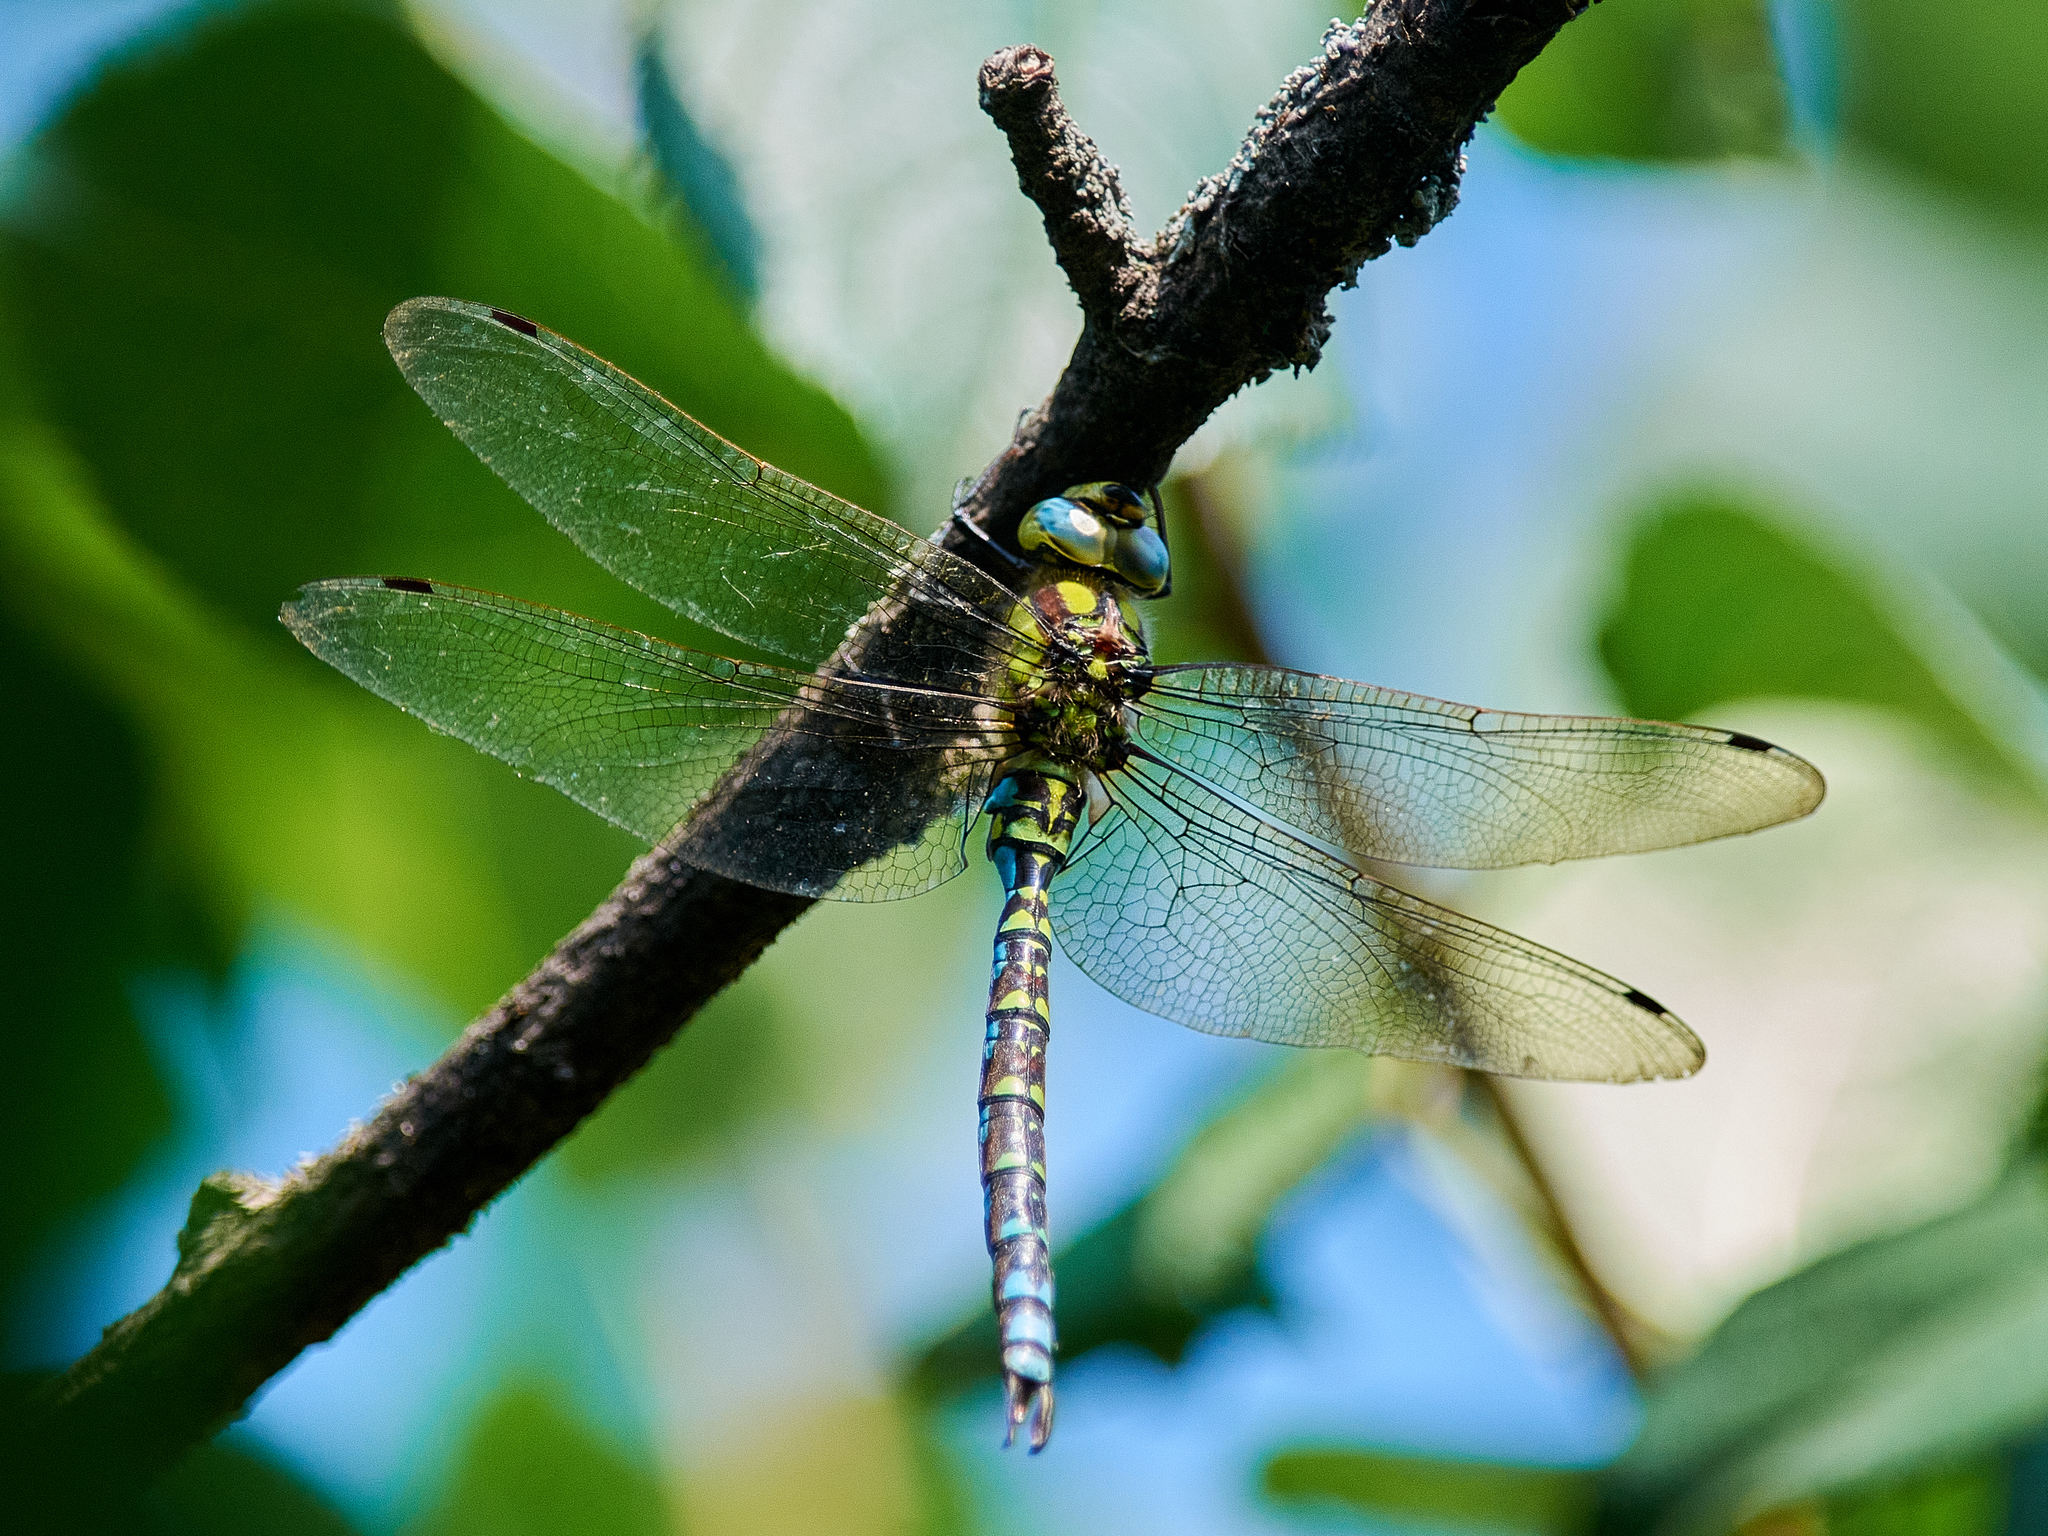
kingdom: Animalia
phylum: Arthropoda
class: Insecta
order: Odonata
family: Aeshnidae
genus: Aeshna
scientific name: Aeshna cyanea
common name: Southern hawker
